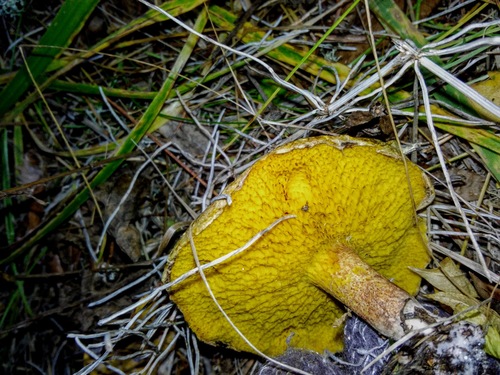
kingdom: Fungi
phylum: Basidiomycota
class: Agaricomycetes
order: Boletales
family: Suillaceae
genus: Suillus
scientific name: Suillus americanus
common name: Chicken fat mushroom
